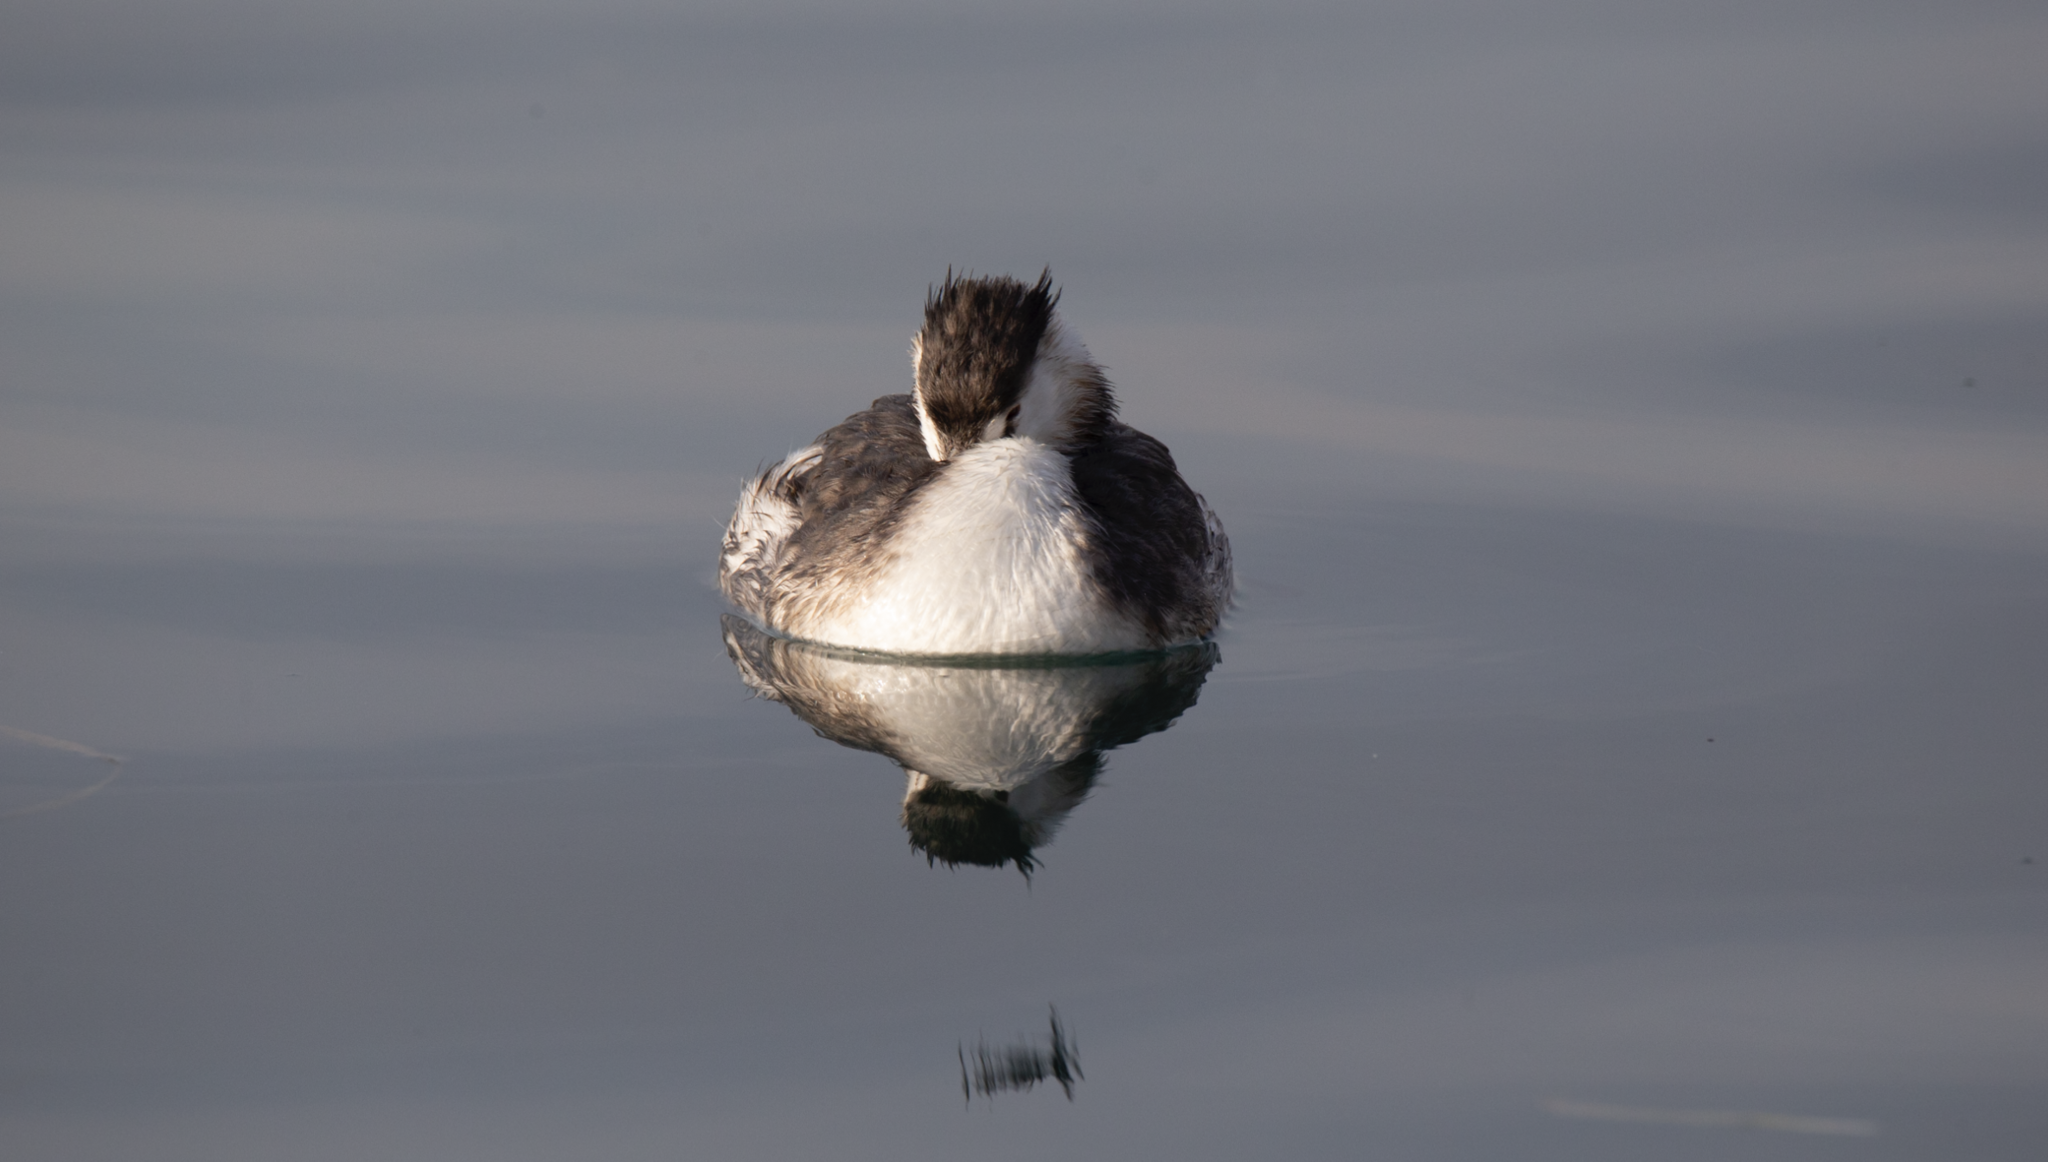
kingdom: Animalia
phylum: Chordata
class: Aves
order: Podicipediformes
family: Podicipedidae
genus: Podiceps
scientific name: Podiceps cristatus
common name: Great crested grebe
